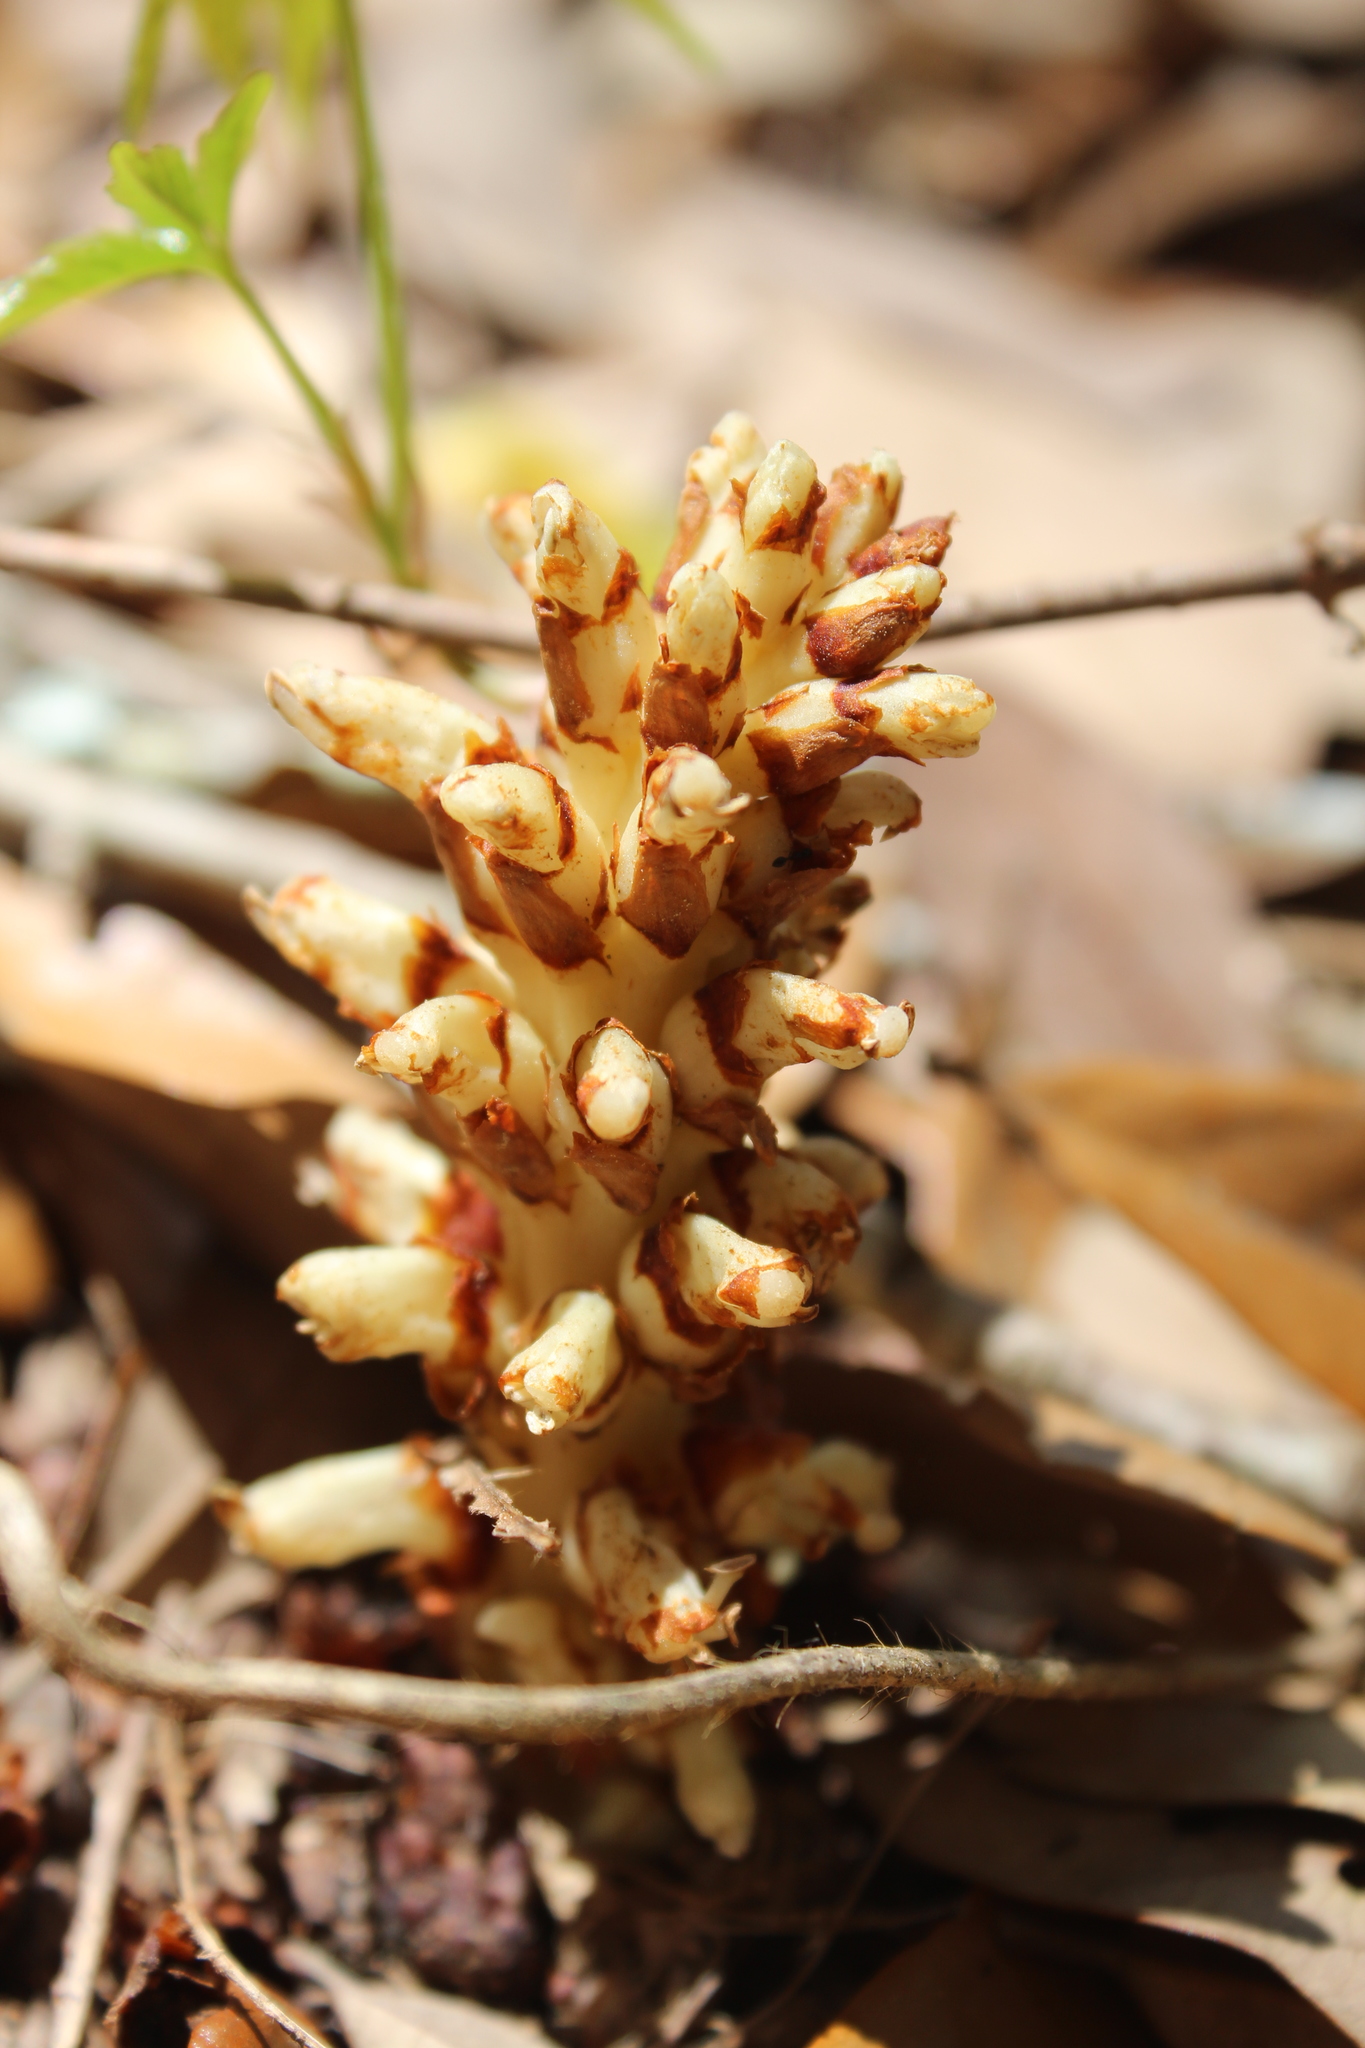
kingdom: Plantae
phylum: Tracheophyta
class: Magnoliopsida
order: Lamiales
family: Orobanchaceae
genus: Conopholis
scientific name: Conopholis americana
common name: American cancer-root
